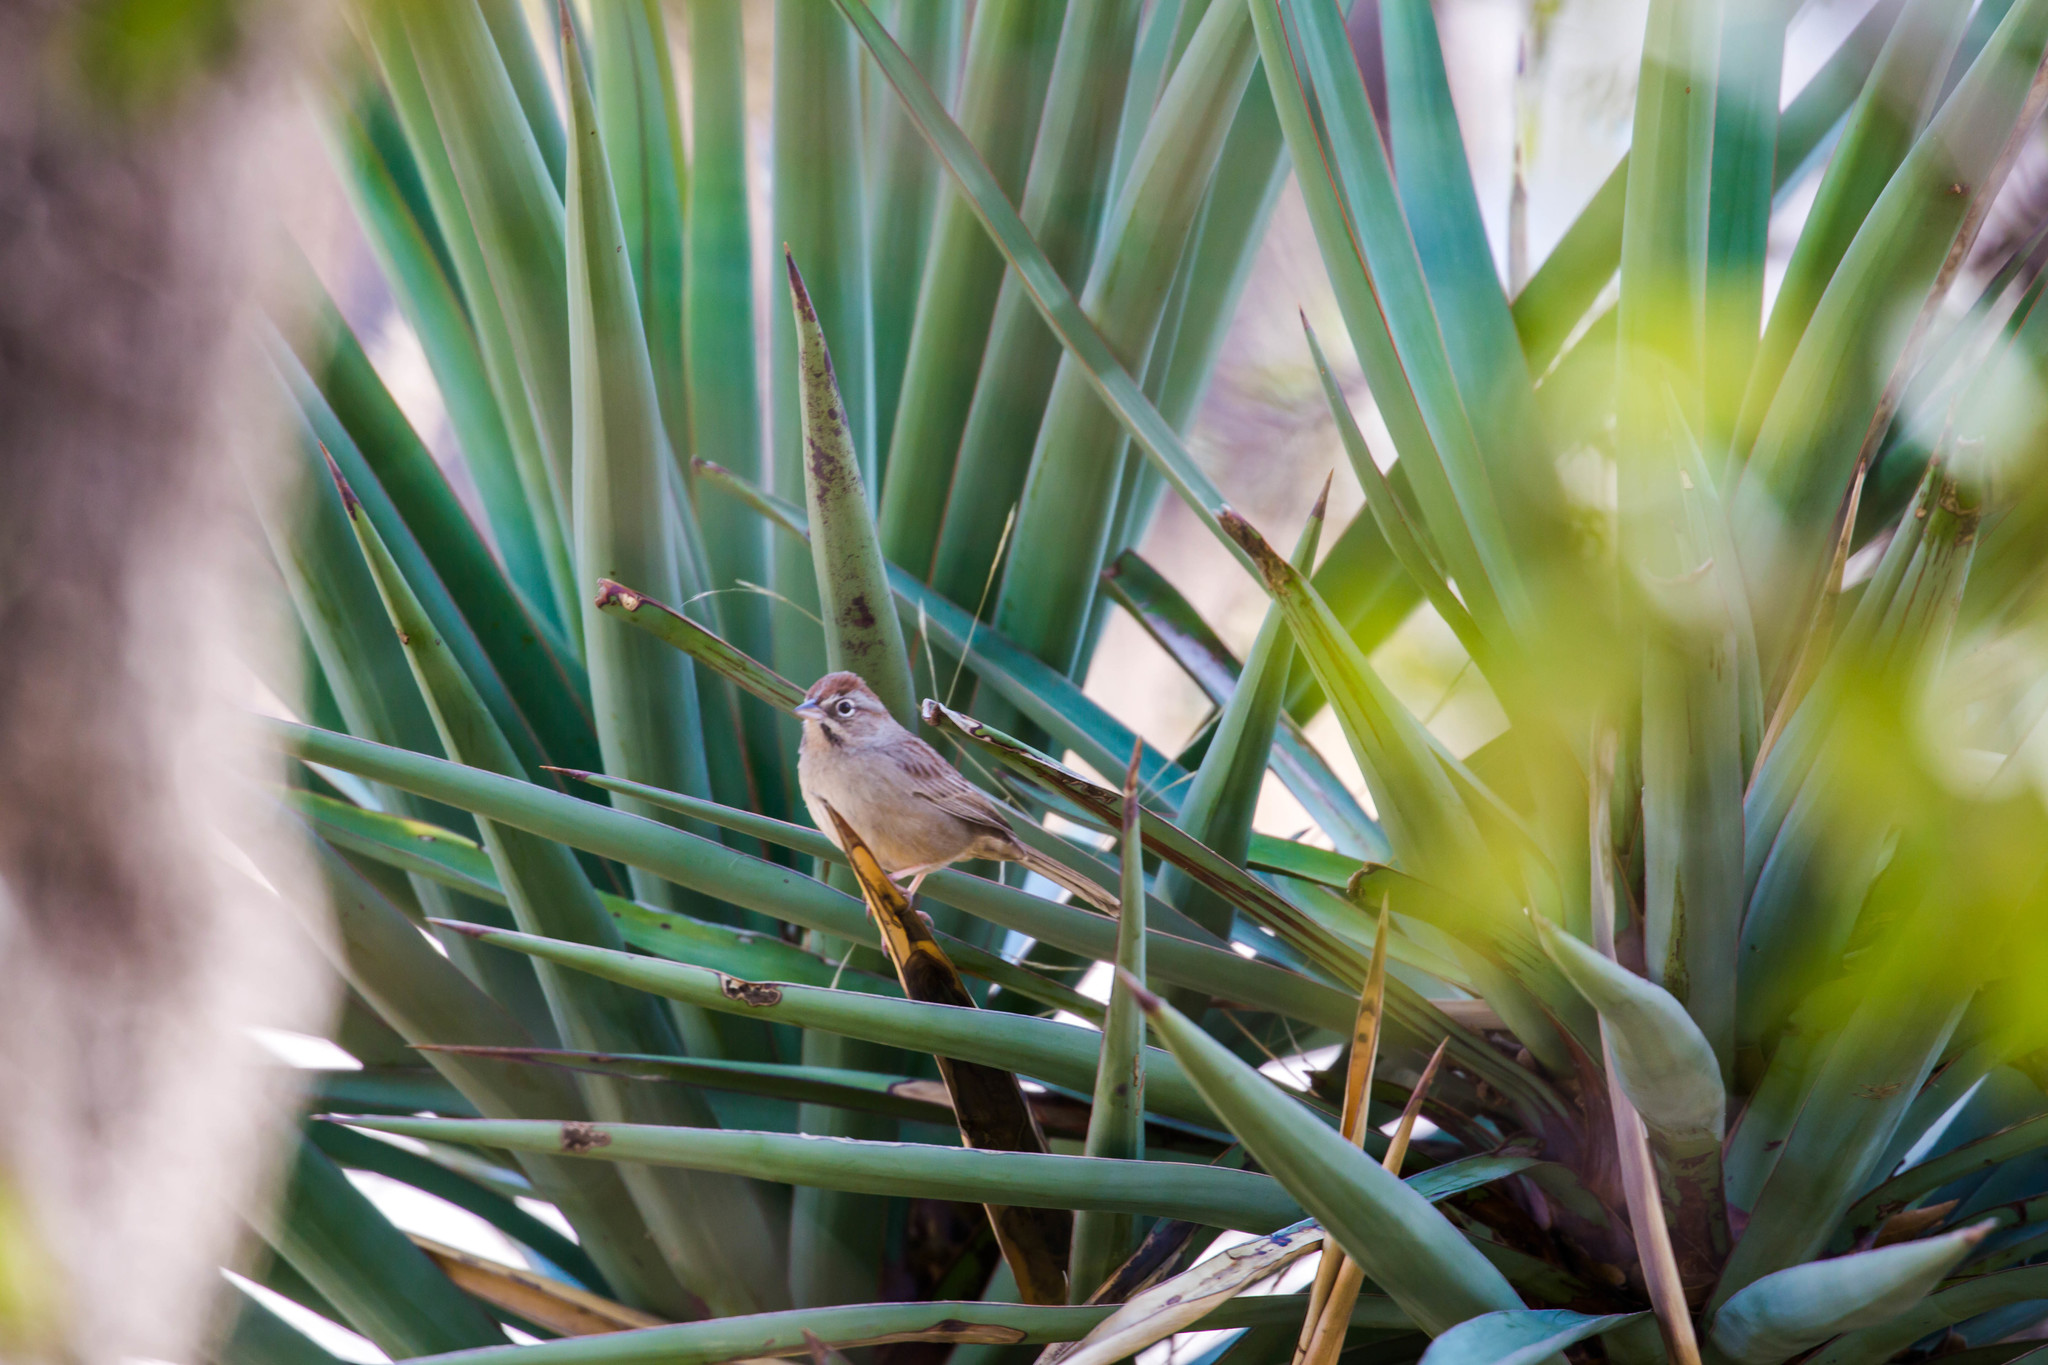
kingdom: Animalia
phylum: Chordata
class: Aves
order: Passeriformes
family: Passerellidae
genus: Aimophila
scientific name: Aimophila ruficeps
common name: Rufous-crowned sparrow
